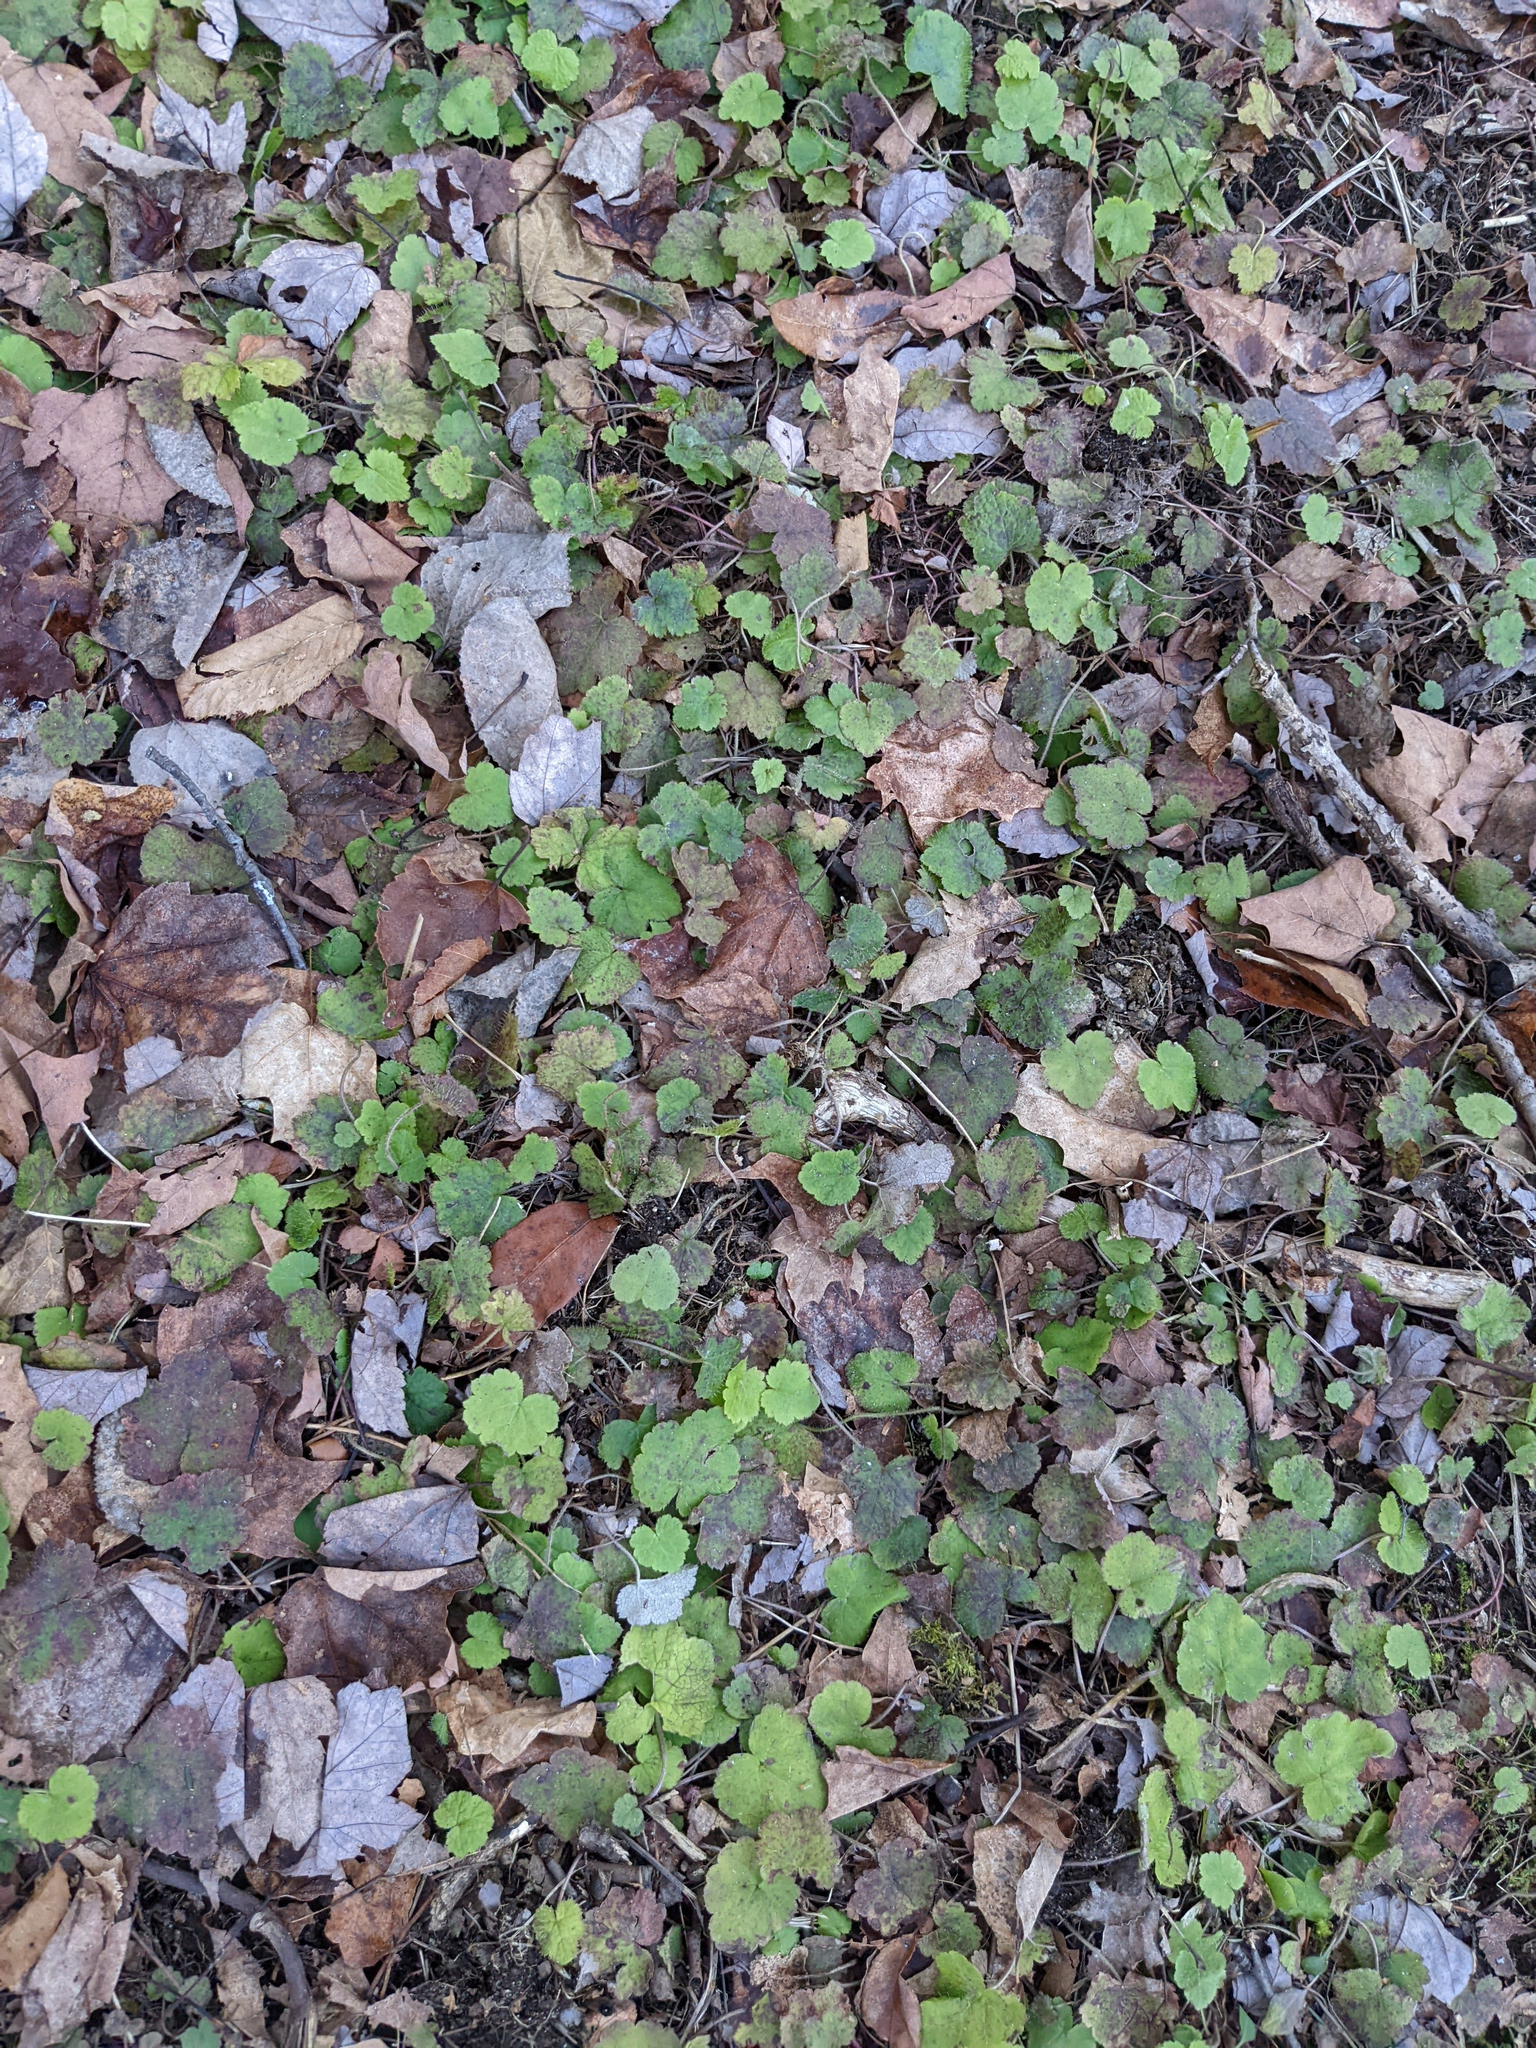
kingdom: Plantae
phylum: Tracheophyta
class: Magnoliopsida
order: Saxifragales
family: Saxifragaceae
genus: Tiarella
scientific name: Tiarella stolonifera
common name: Stoloniferous foamflower
